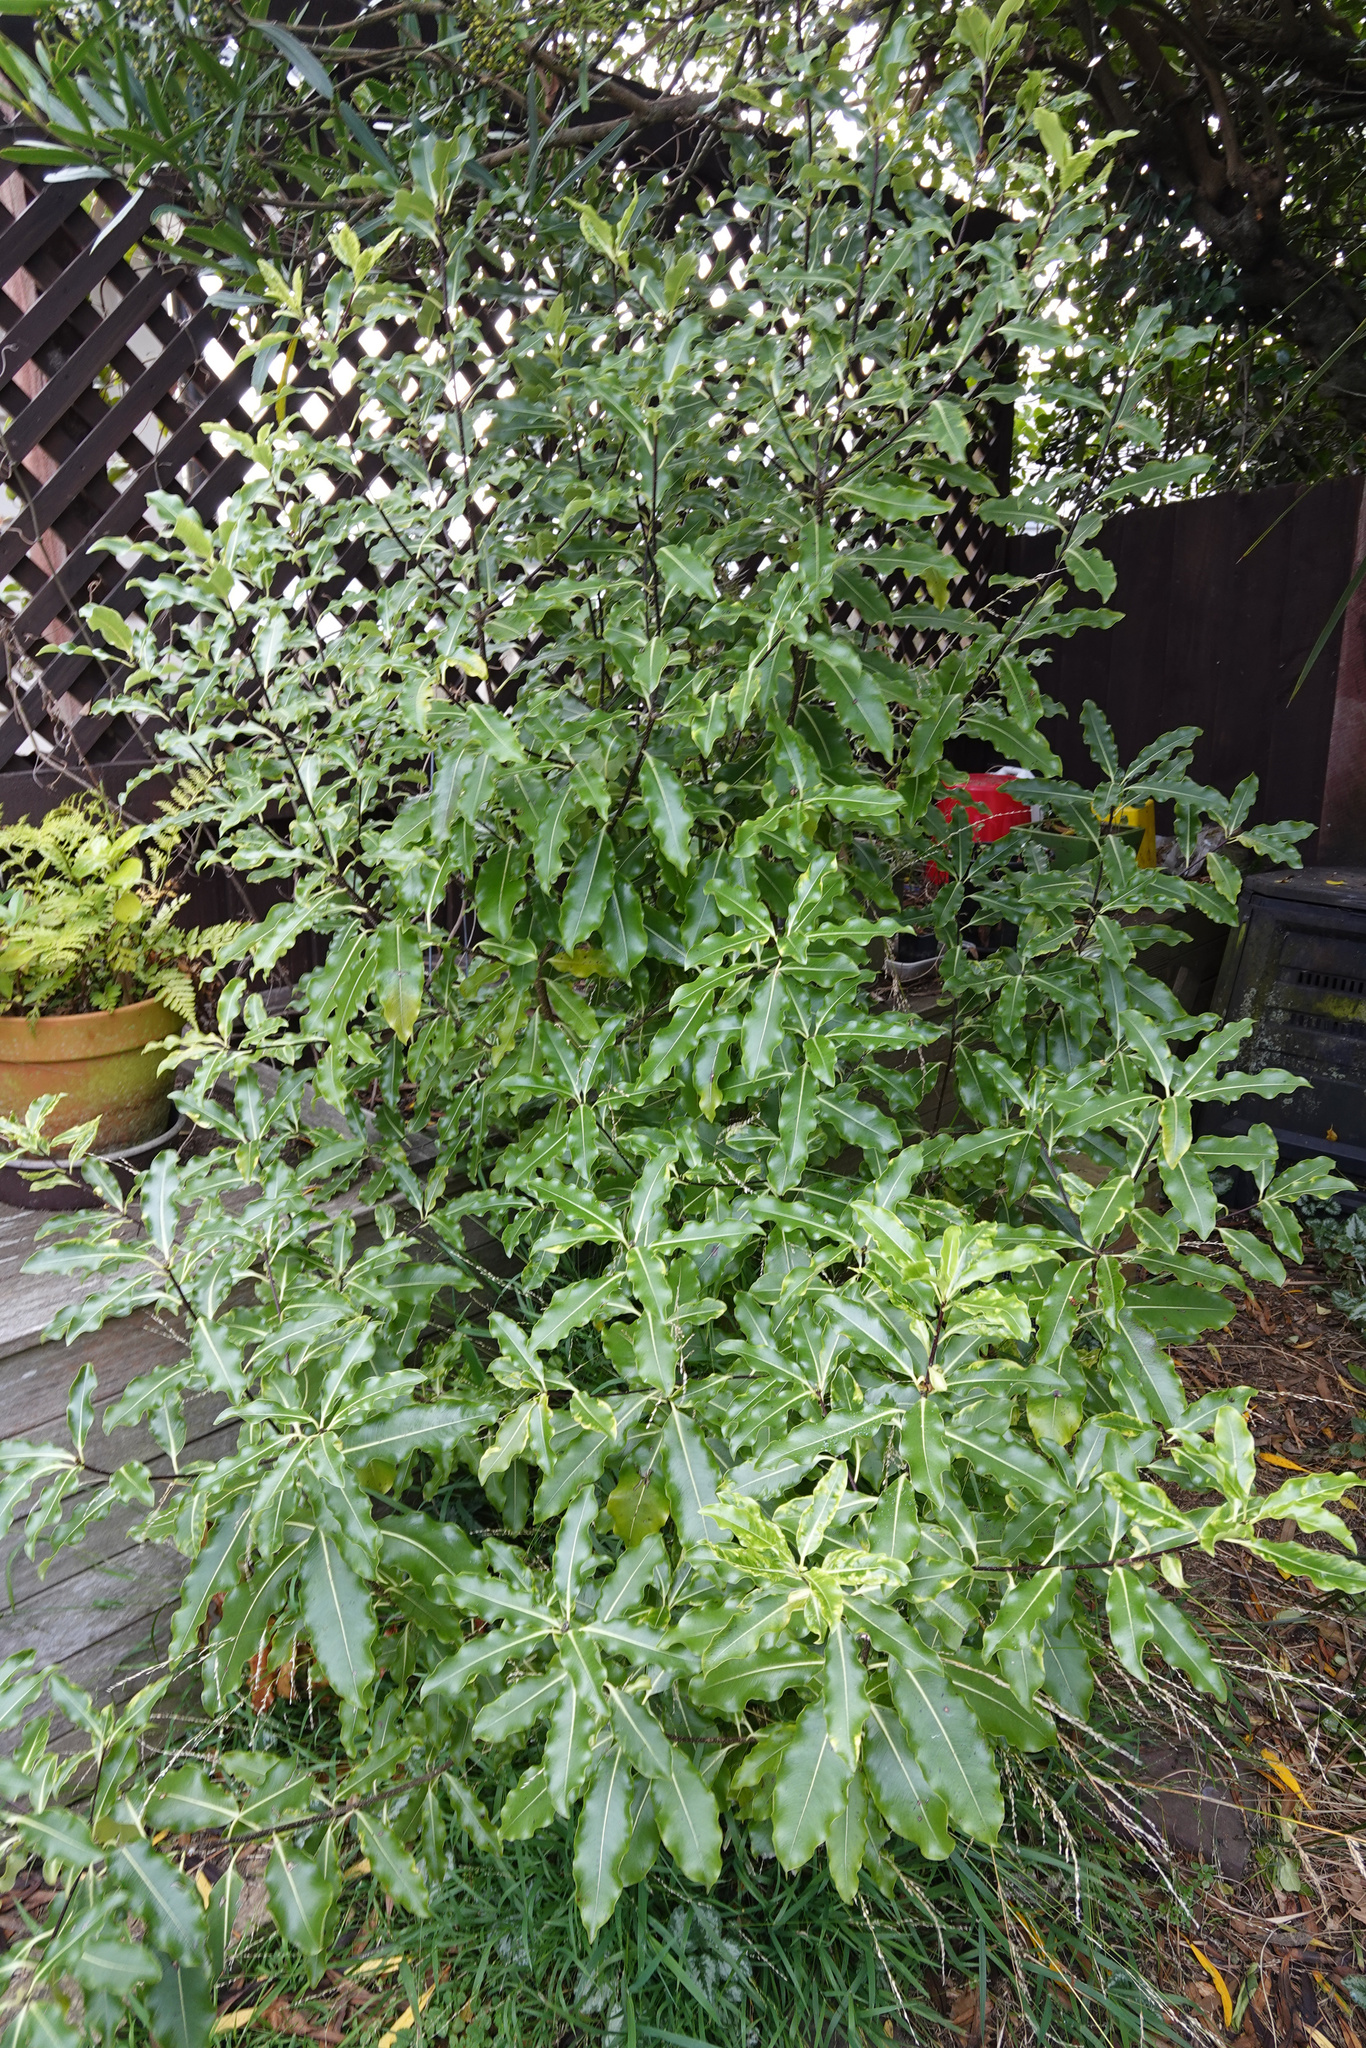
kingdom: Plantae
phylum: Tracheophyta
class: Magnoliopsida
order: Apiales
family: Pittosporaceae
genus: Pittosporum
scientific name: Pittosporum eugenioides
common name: Lemonwood
